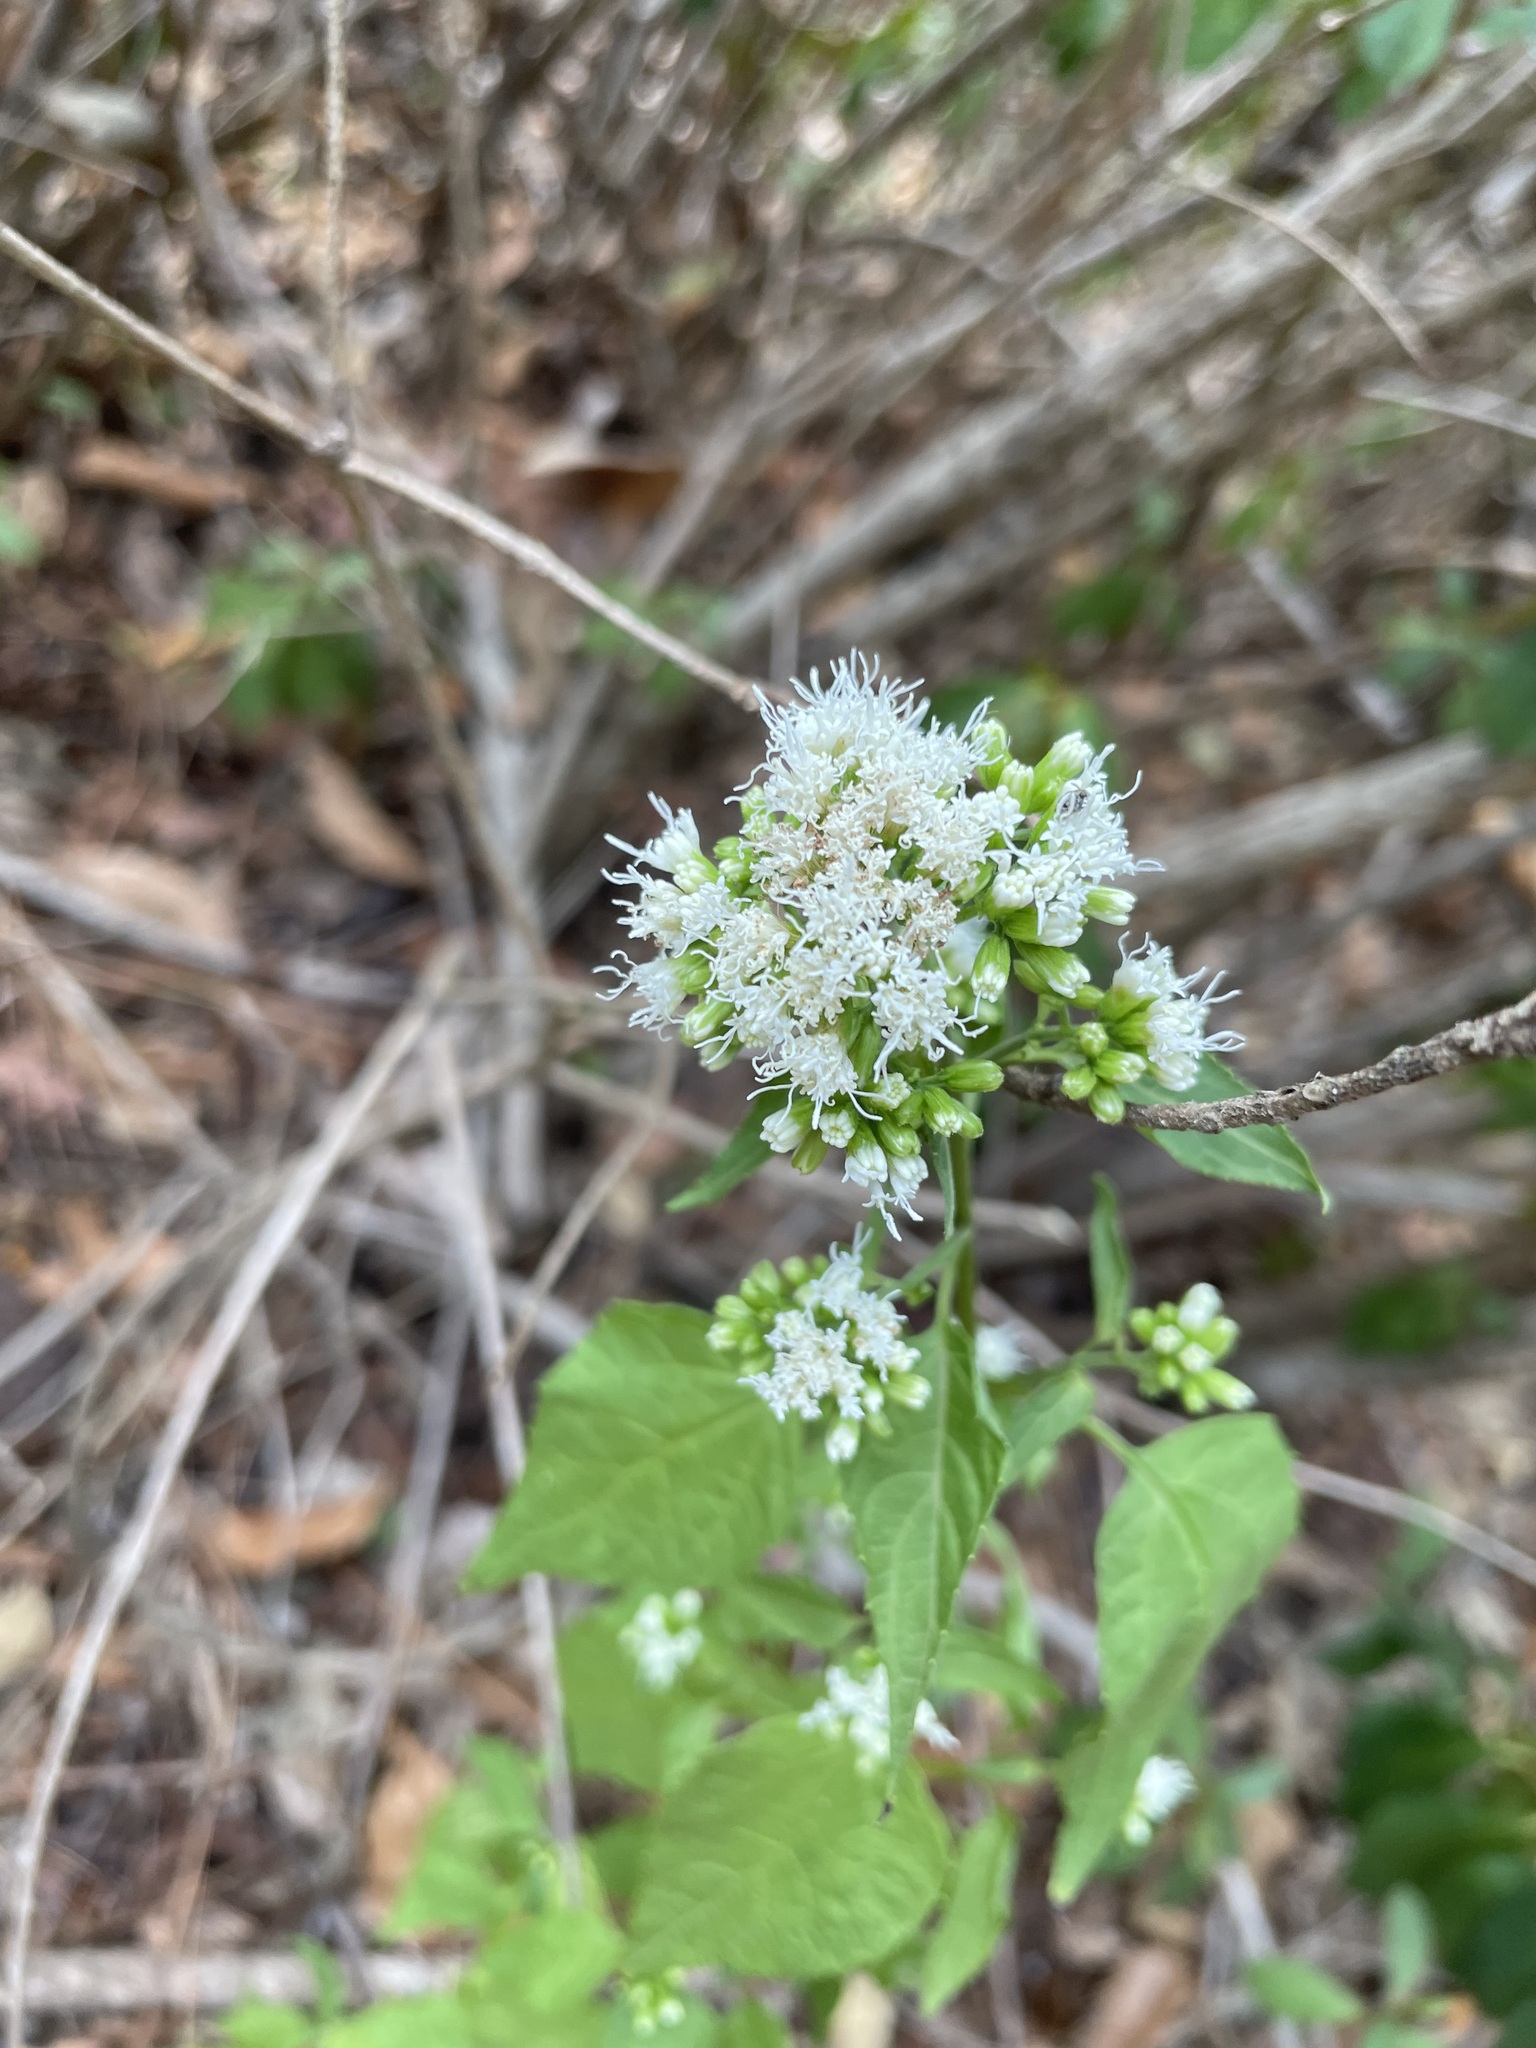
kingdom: Plantae
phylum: Tracheophyta
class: Magnoliopsida
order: Asterales
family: Asteraceae
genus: Ageratina
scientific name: Ageratina altissima
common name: White snakeroot
